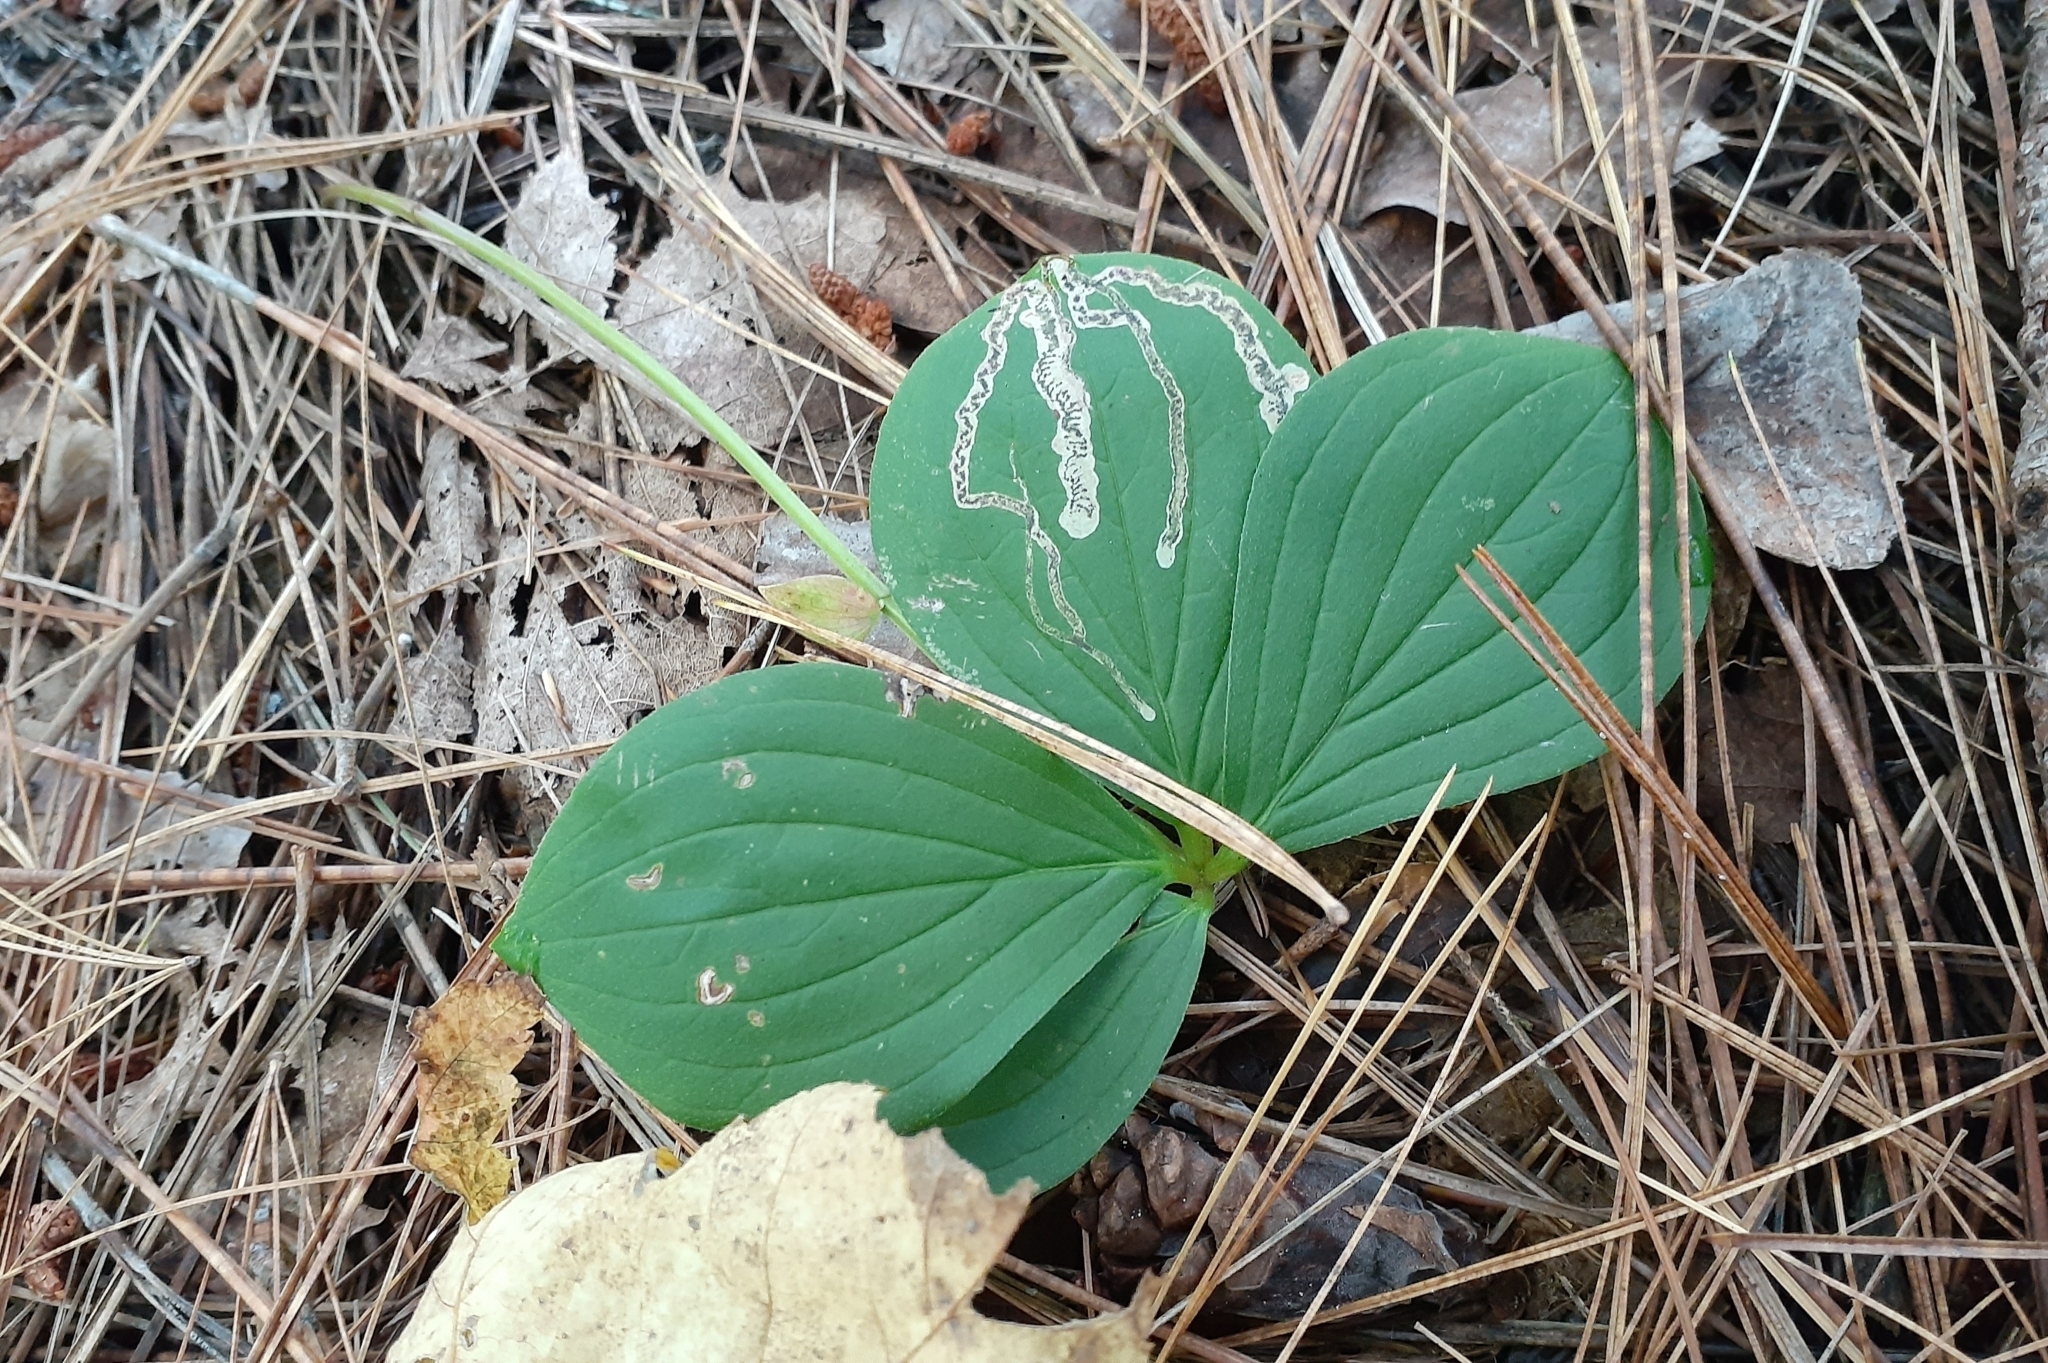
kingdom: Plantae
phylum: Tracheophyta
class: Magnoliopsida
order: Cornales
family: Cornaceae
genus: Cornus
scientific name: Cornus canadensis
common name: Creeping dogwood
